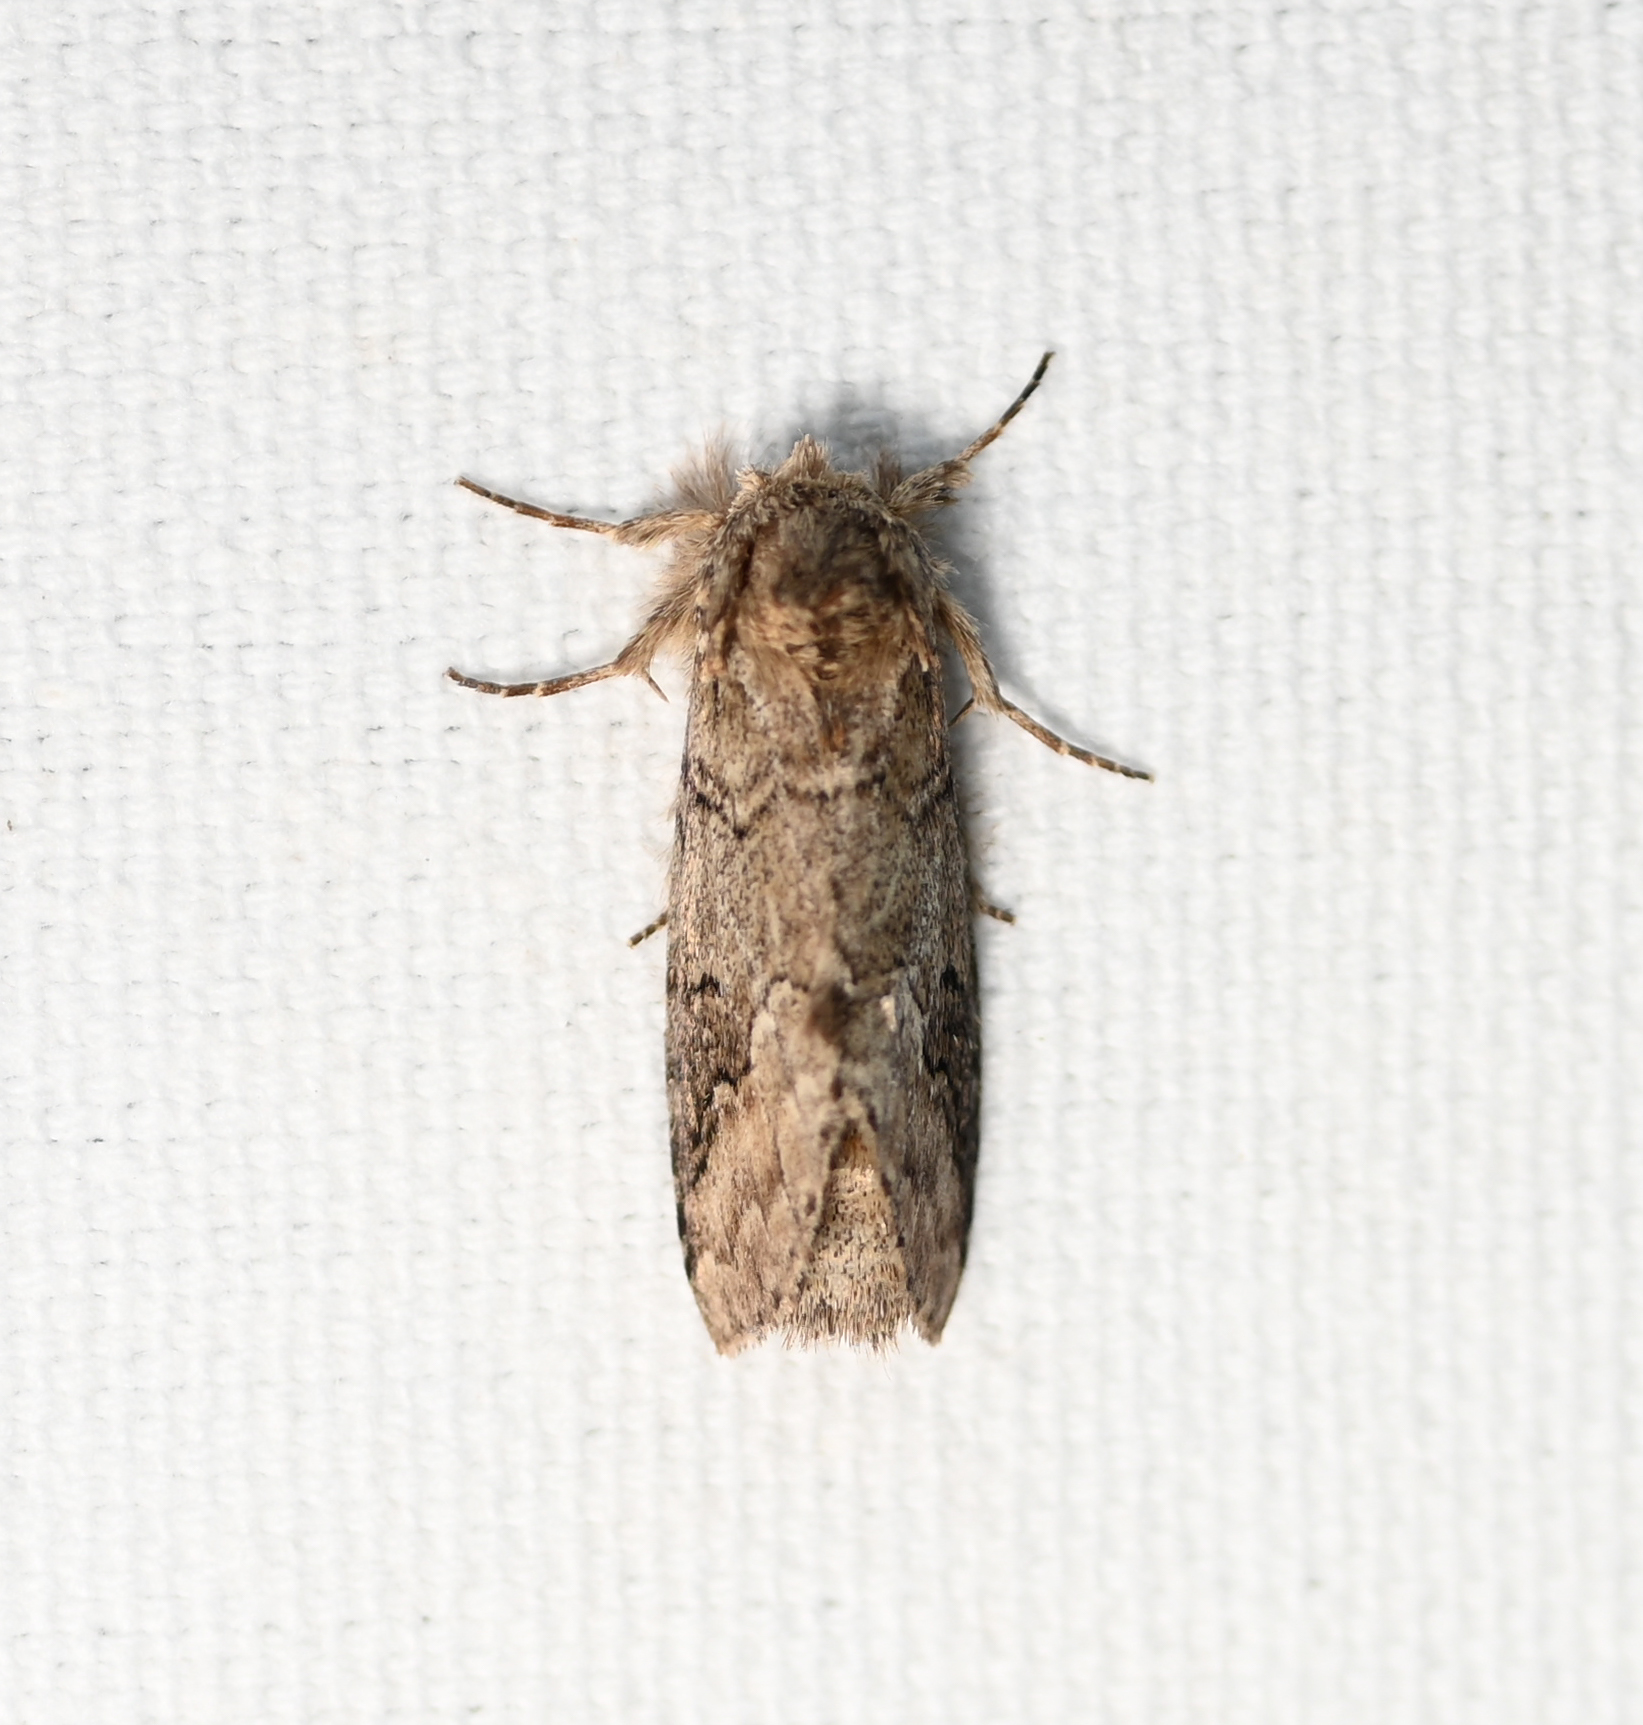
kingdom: Animalia
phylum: Arthropoda
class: Insecta
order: Lepidoptera
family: Notodontidae
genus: Lochmaeus
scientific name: Lochmaeus bilineata
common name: Double-lined prominent
